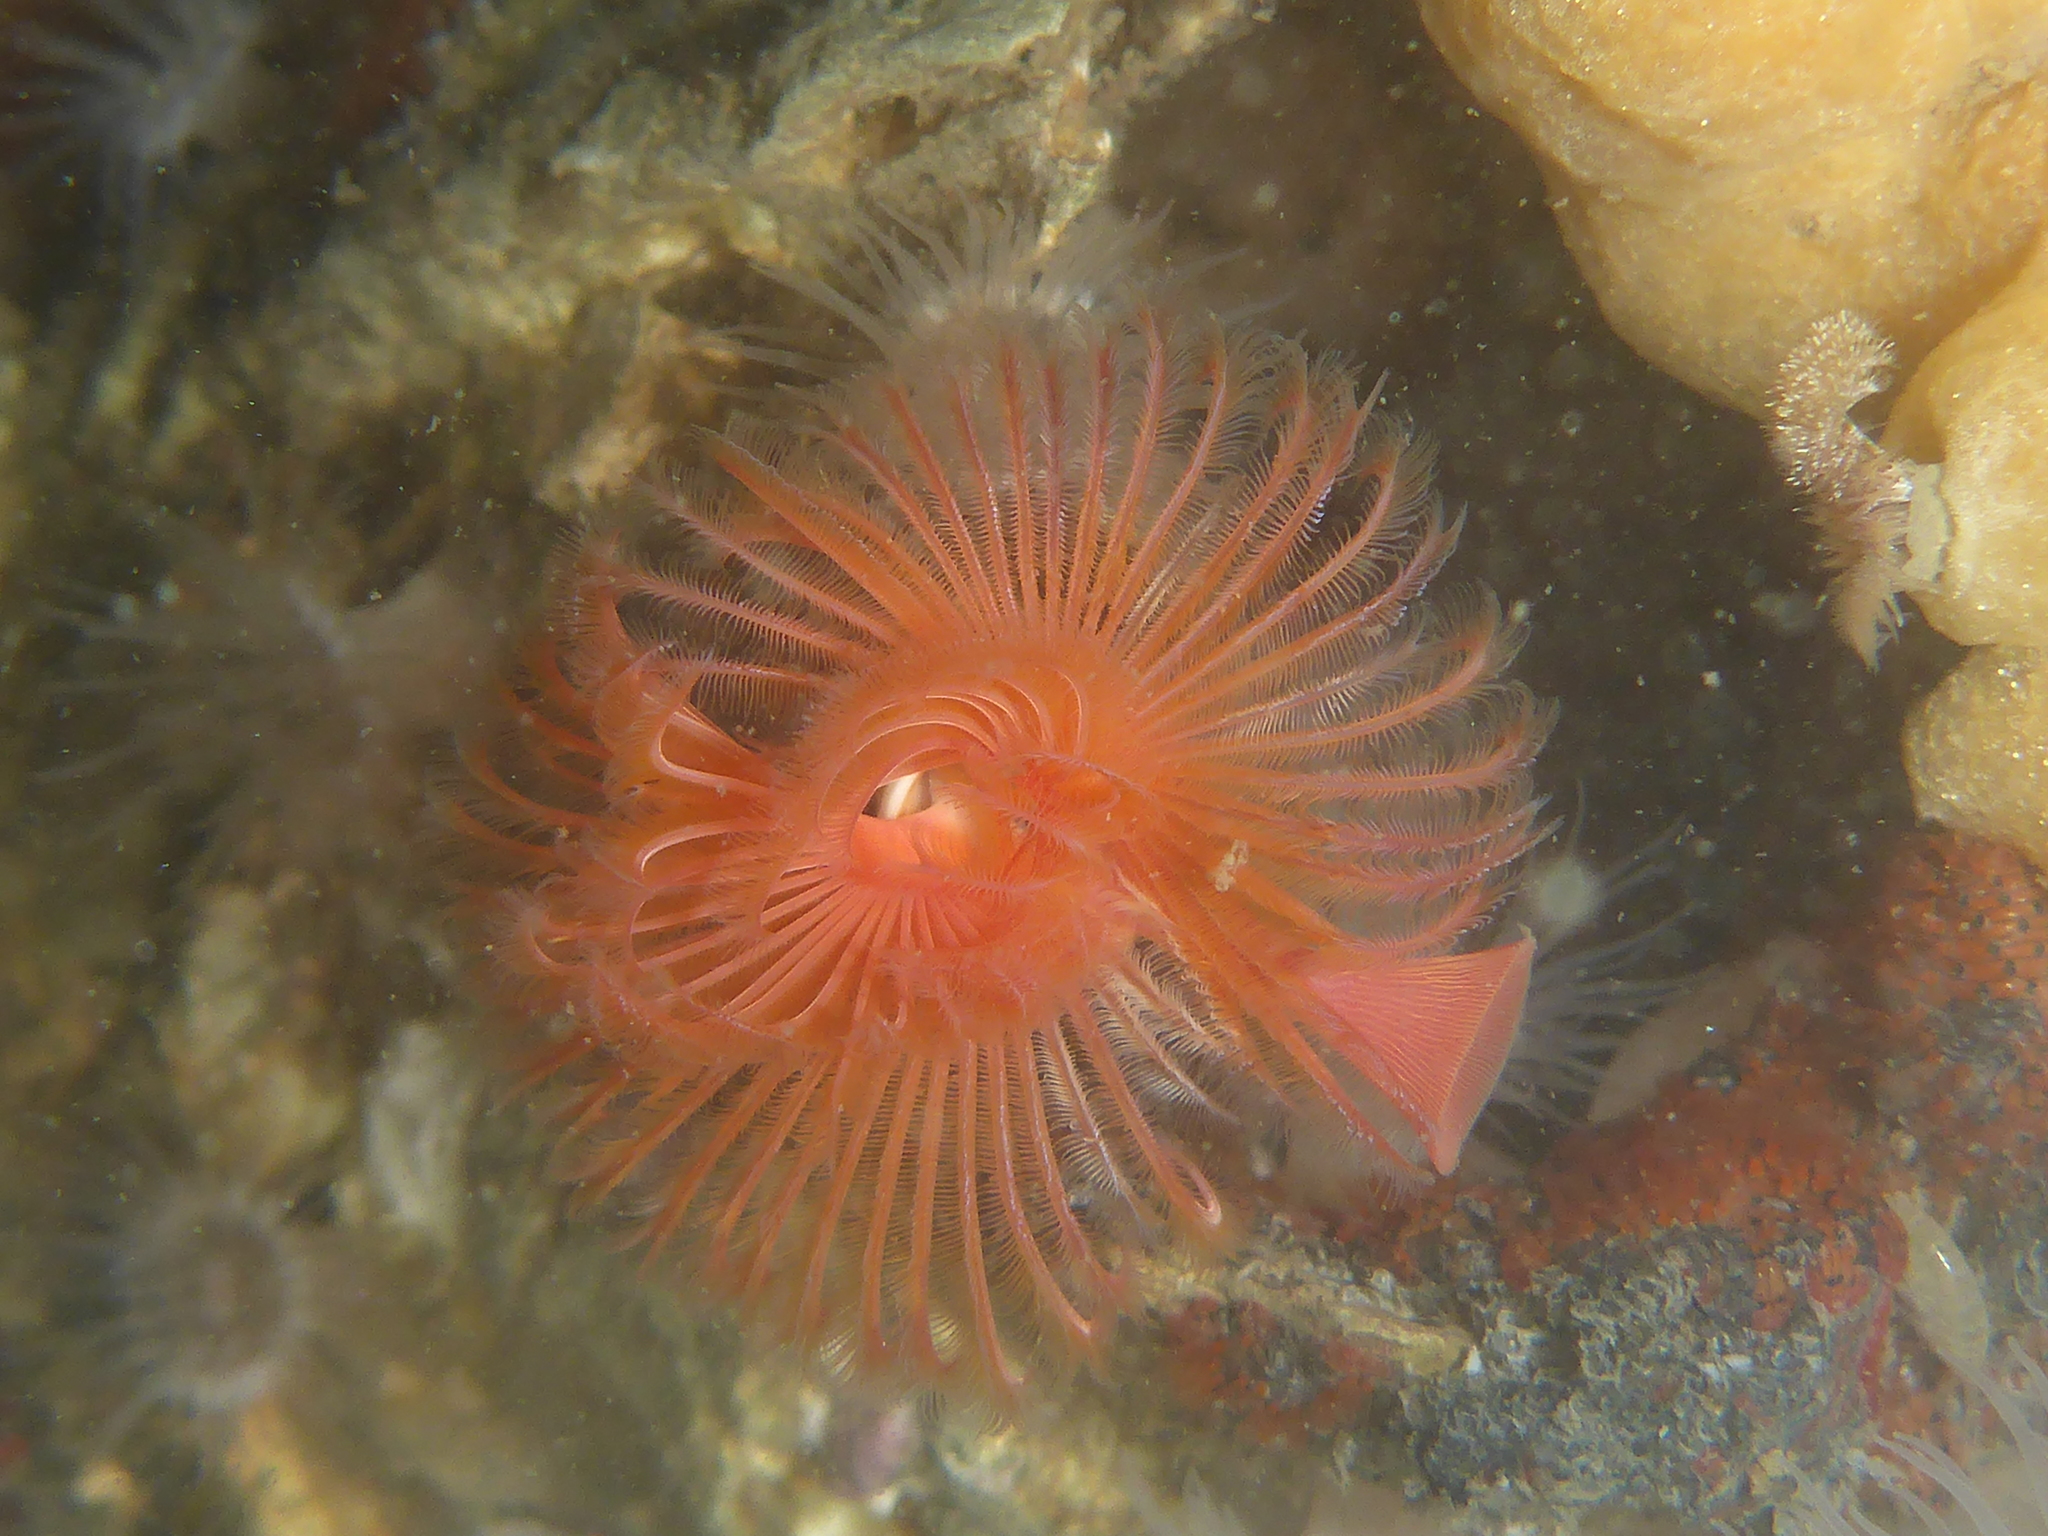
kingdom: Animalia
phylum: Annelida
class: Polychaeta
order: Sabellida
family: Serpulidae
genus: Serpula
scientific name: Serpula columbiana
